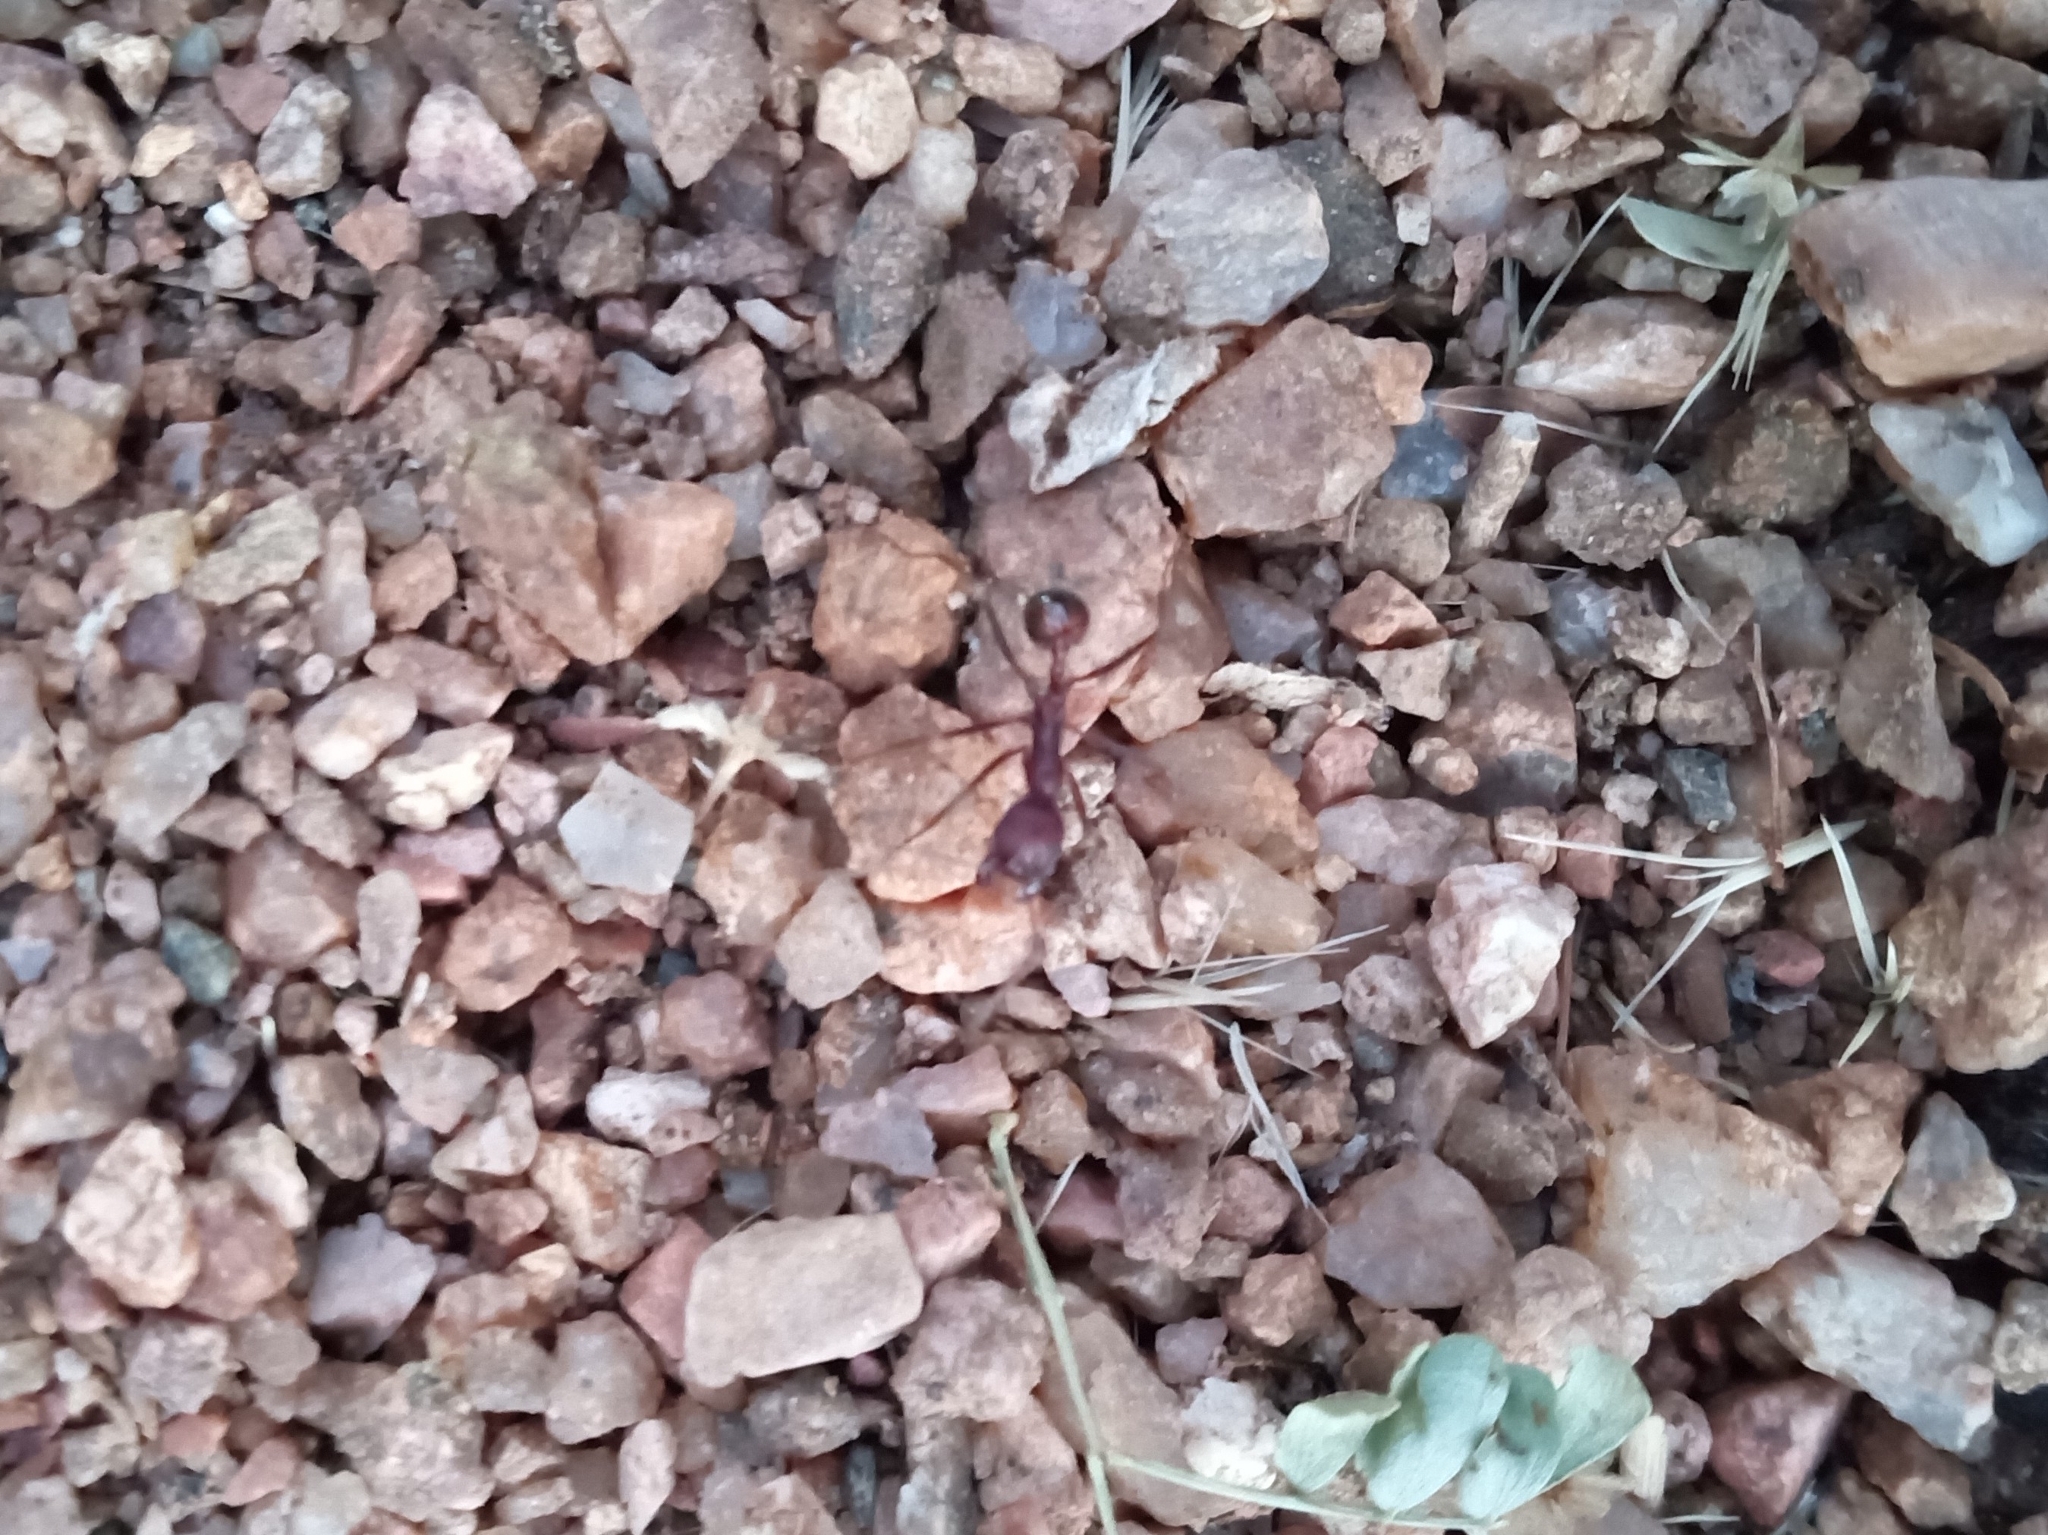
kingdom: Animalia
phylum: Arthropoda
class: Insecta
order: Hymenoptera
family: Formicidae
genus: Novomessor
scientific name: Novomessor albisetosa
